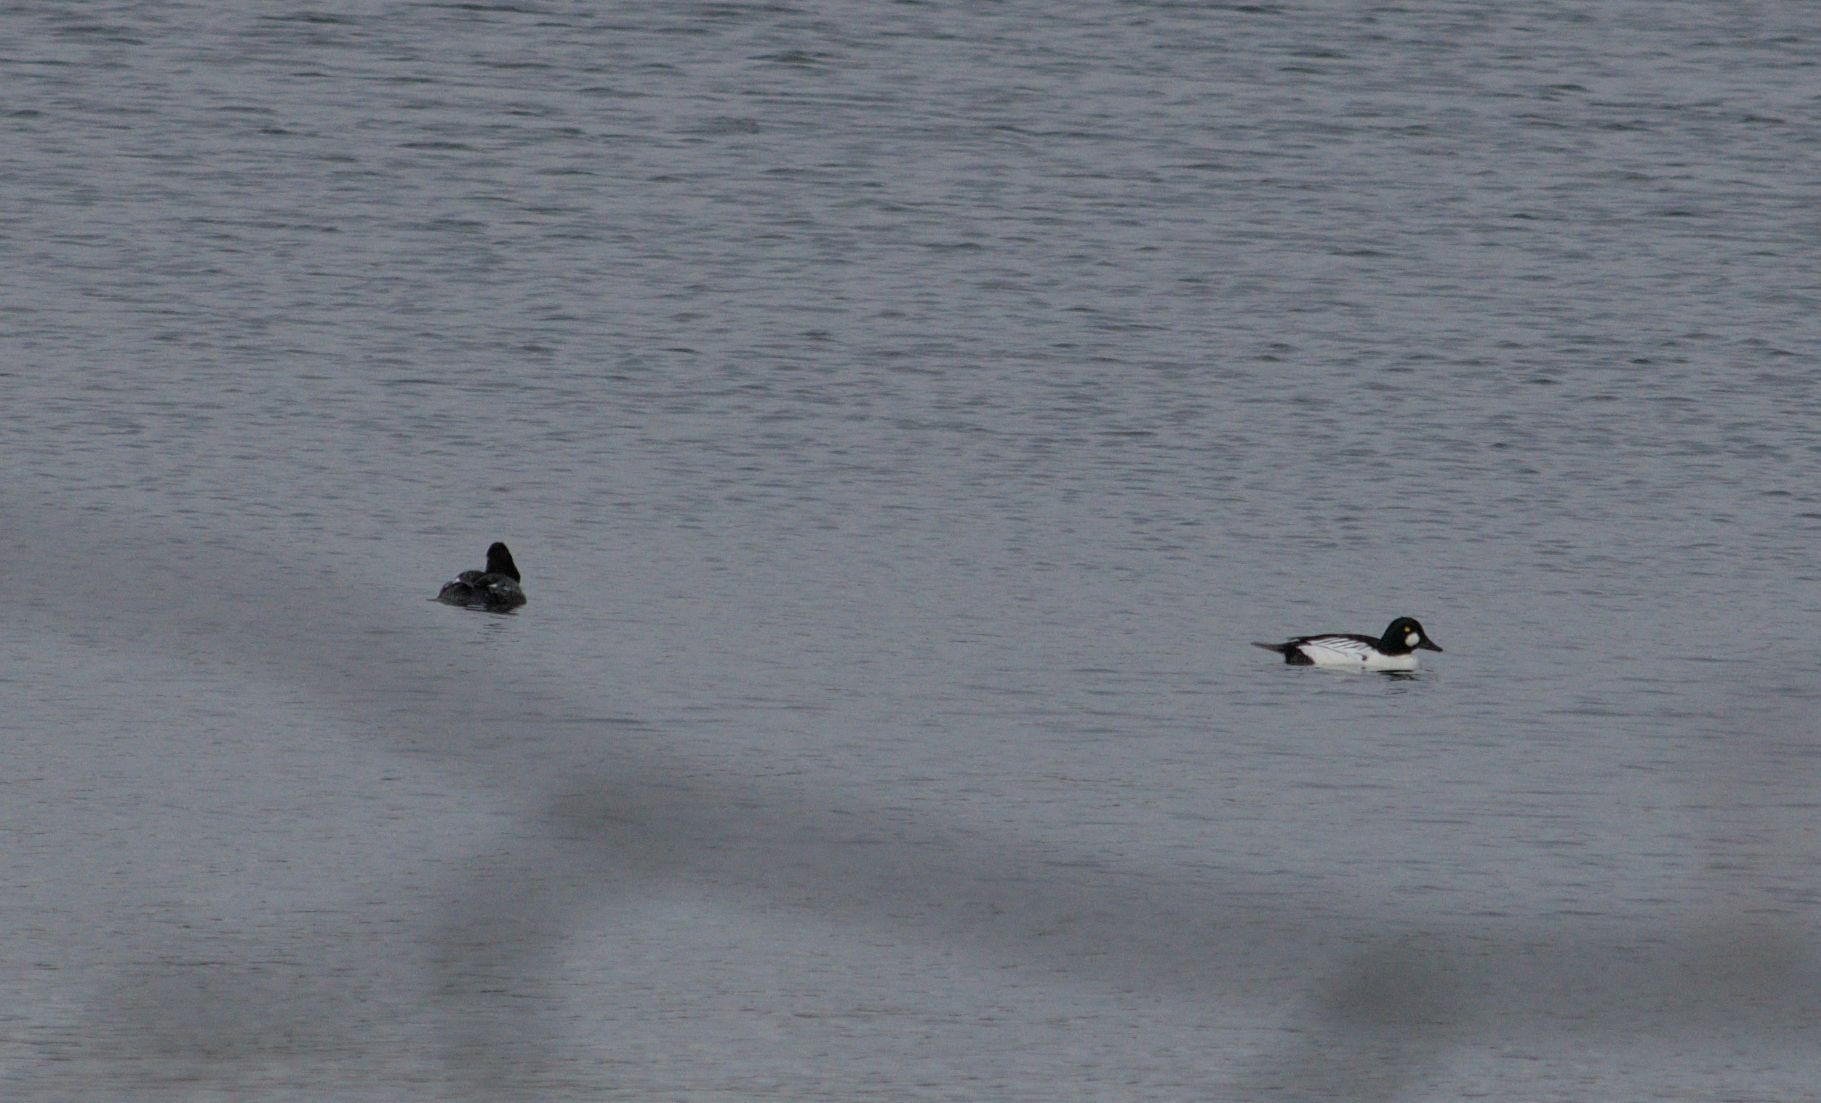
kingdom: Animalia
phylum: Chordata
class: Aves
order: Anseriformes
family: Anatidae
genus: Bucephala
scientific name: Bucephala clangula
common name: Common goldeneye
